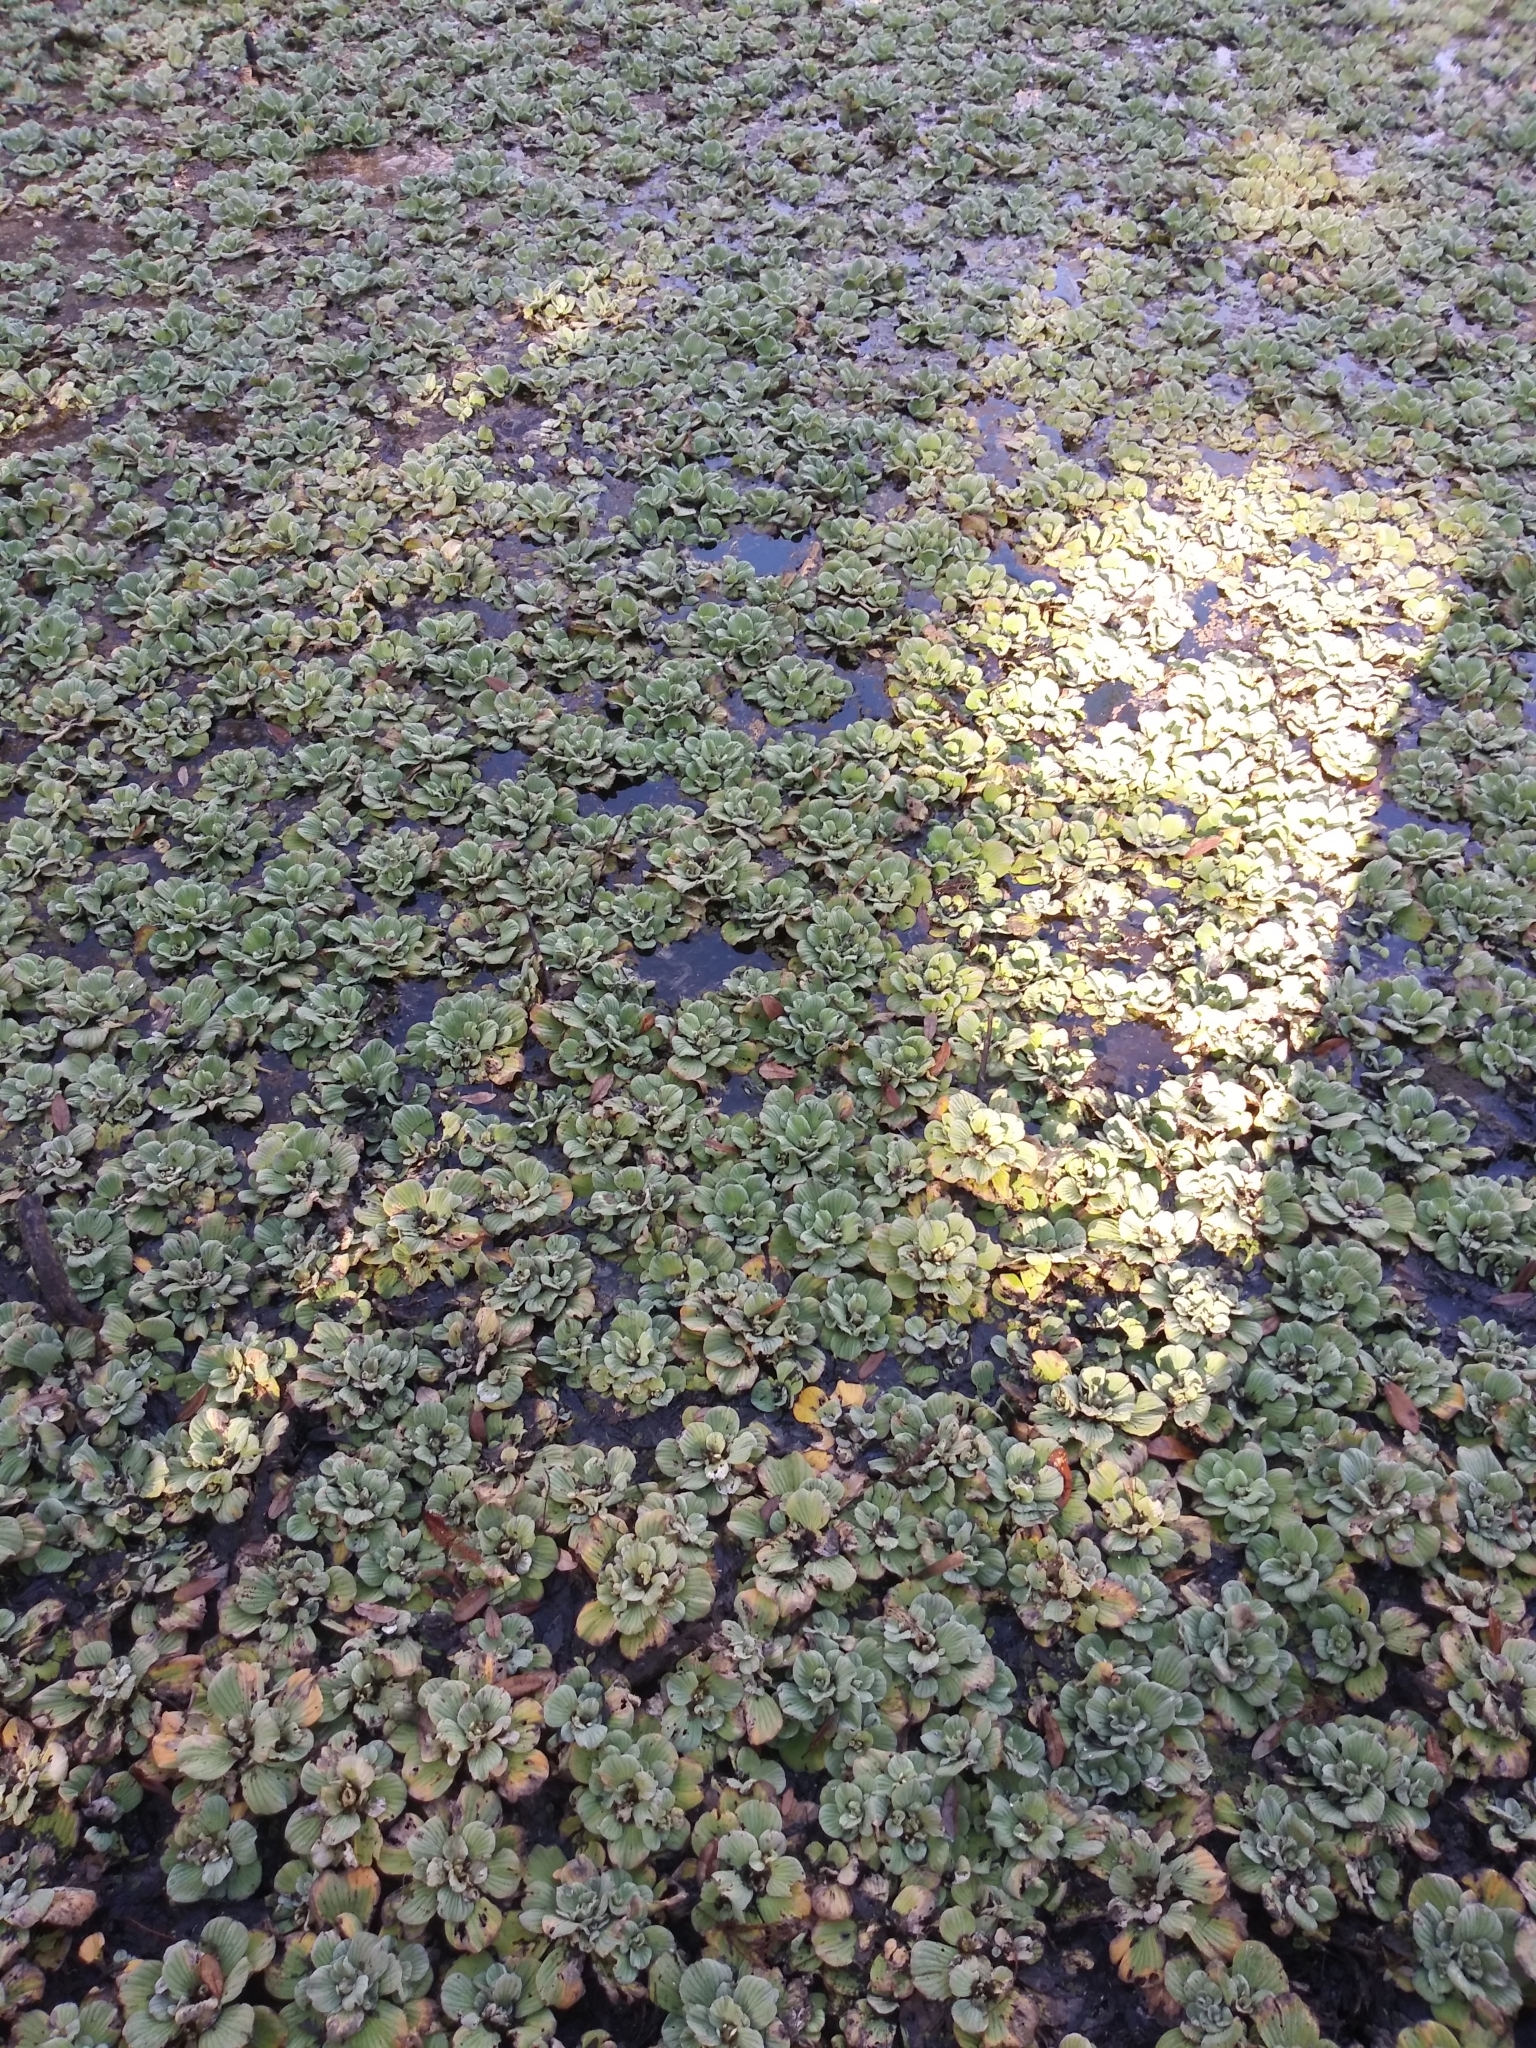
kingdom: Plantae
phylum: Tracheophyta
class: Liliopsida
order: Alismatales
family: Araceae
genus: Pistia
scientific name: Pistia stratiotes
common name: Water lettuce
